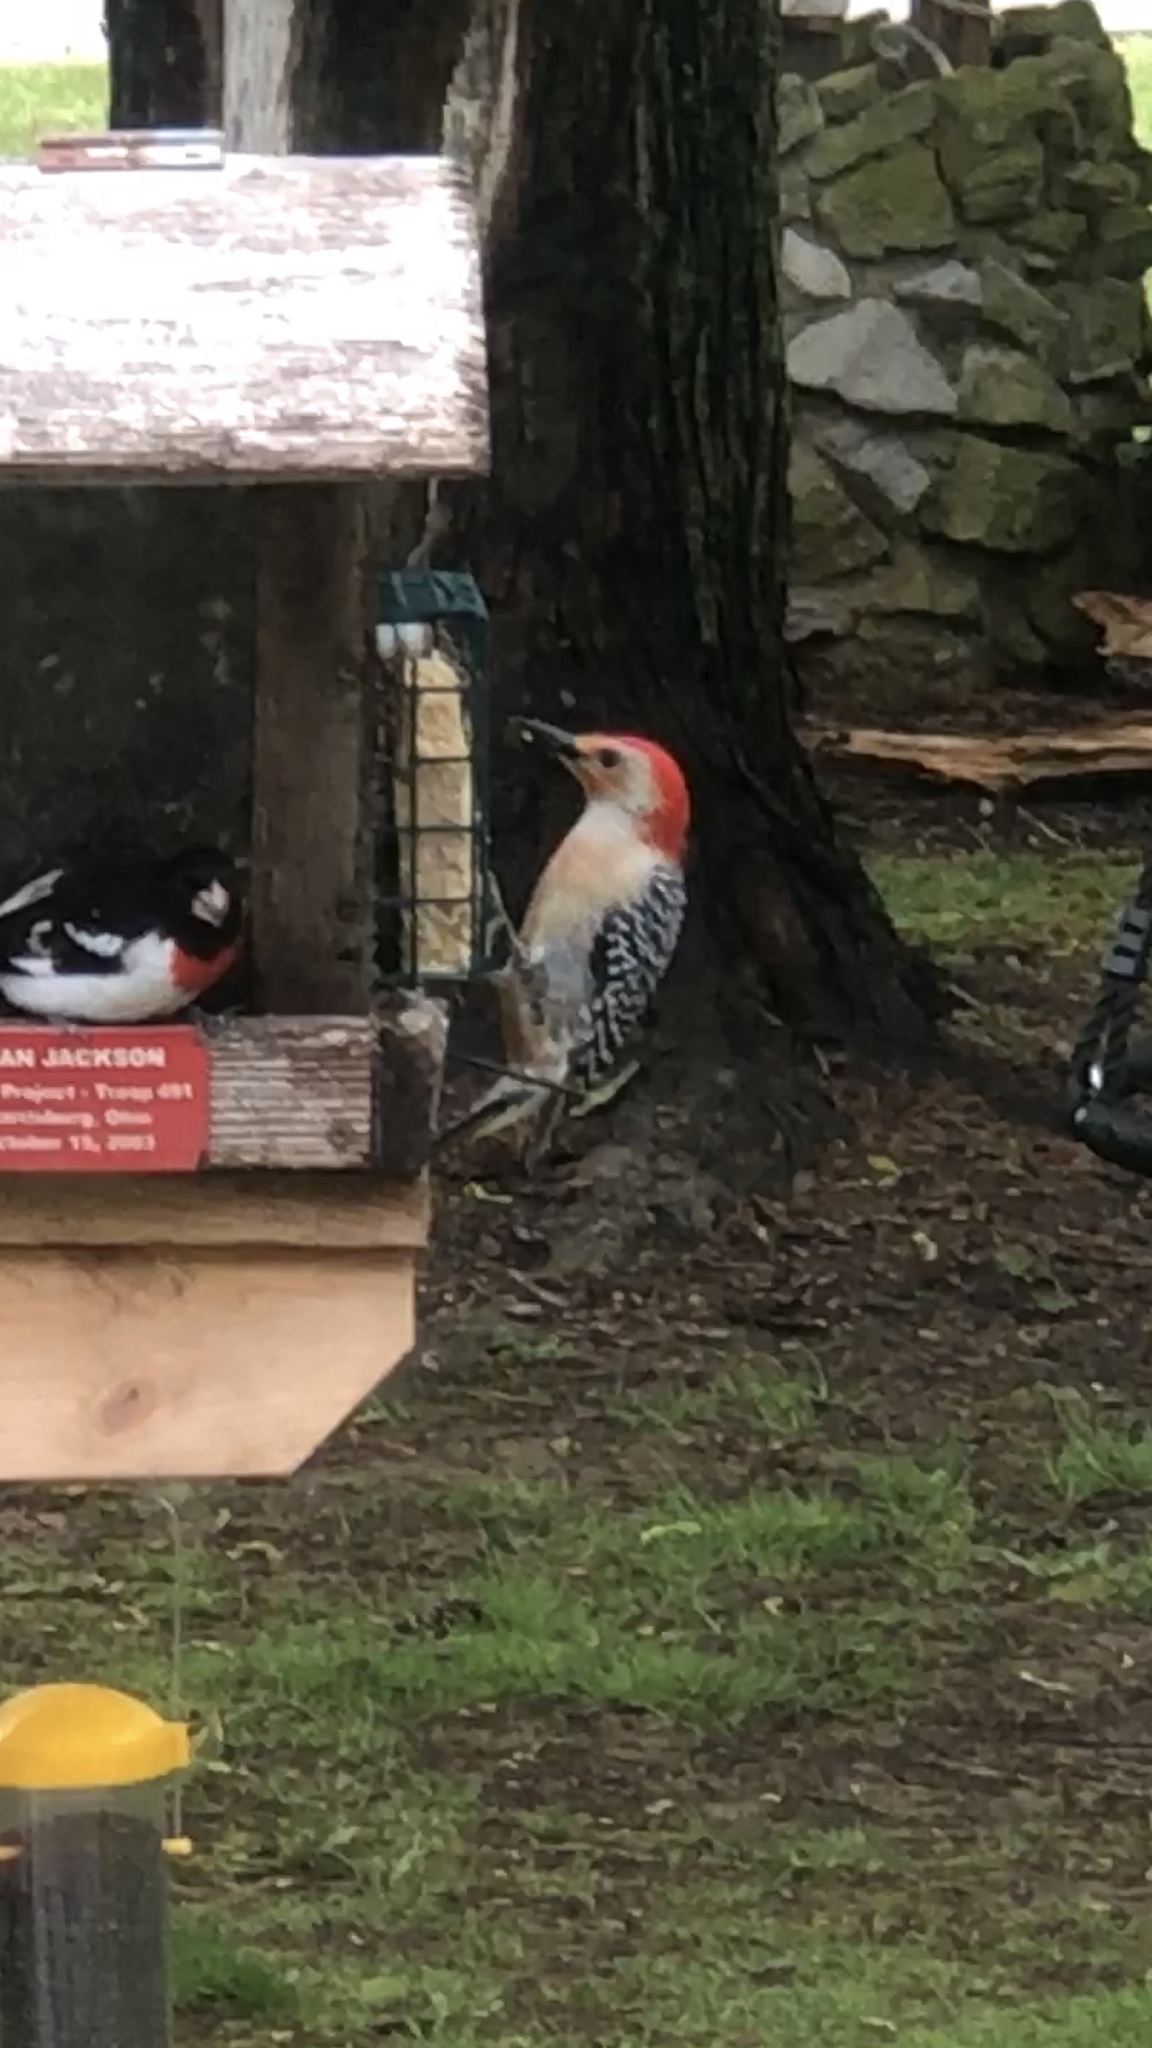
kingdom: Animalia
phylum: Chordata
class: Aves
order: Piciformes
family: Picidae
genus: Melanerpes
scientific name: Melanerpes carolinus
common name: Red-bellied woodpecker
